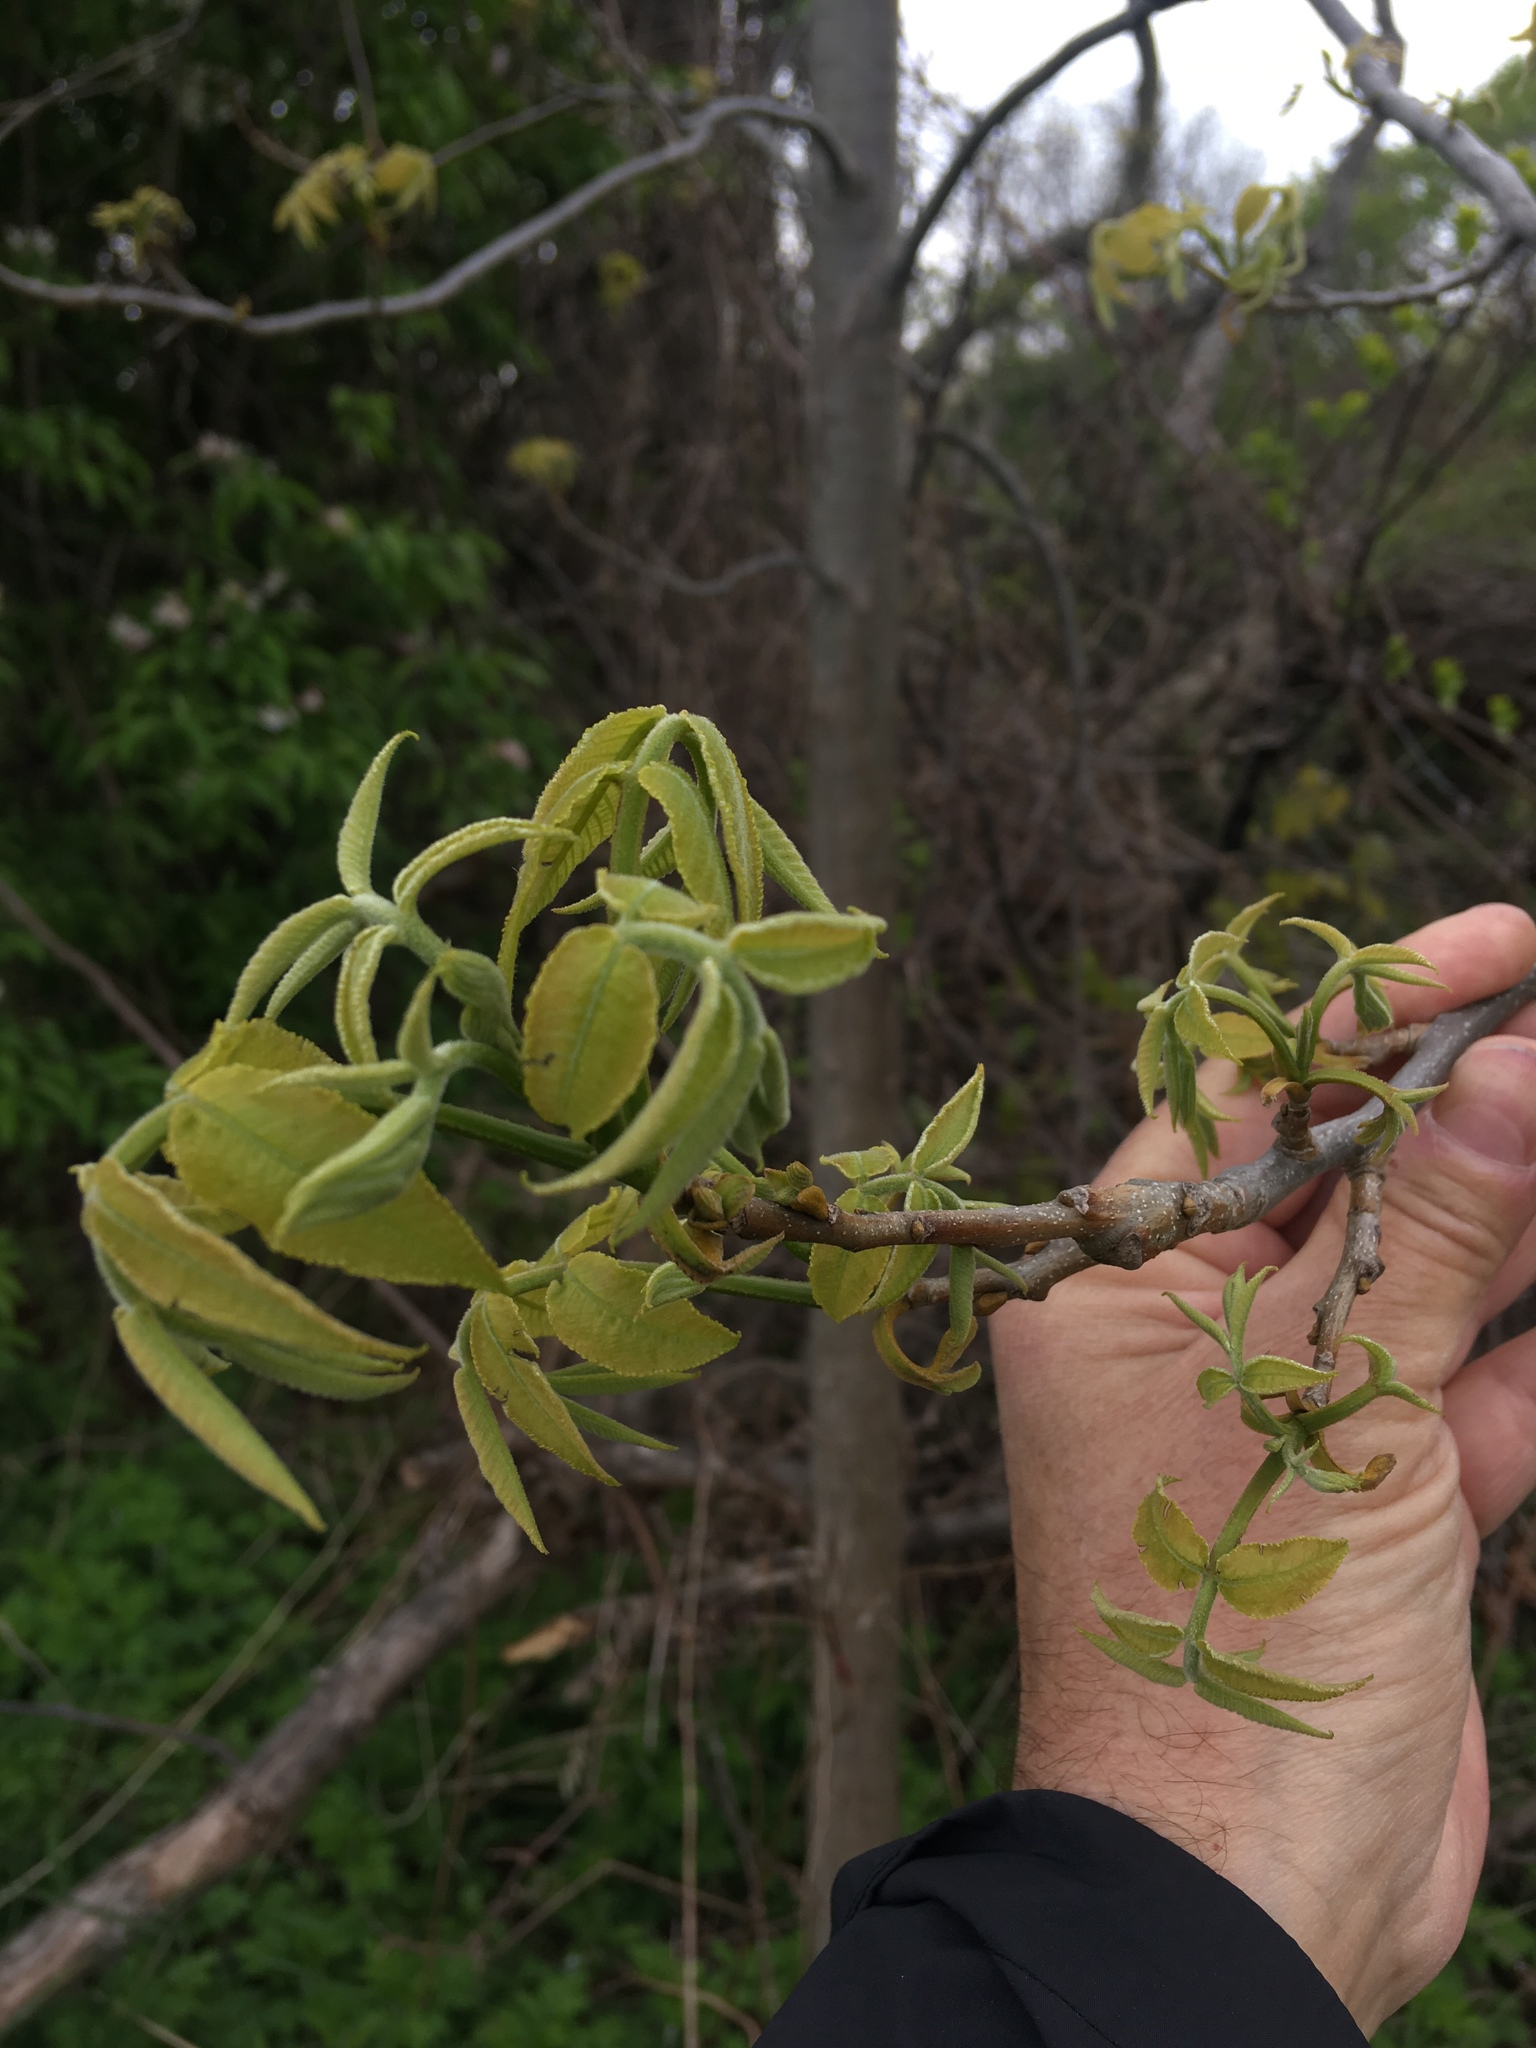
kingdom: Plantae
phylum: Tracheophyta
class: Magnoliopsida
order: Fagales
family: Juglandaceae
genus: Carya
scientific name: Carya cordiformis
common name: Bitternut hickory
